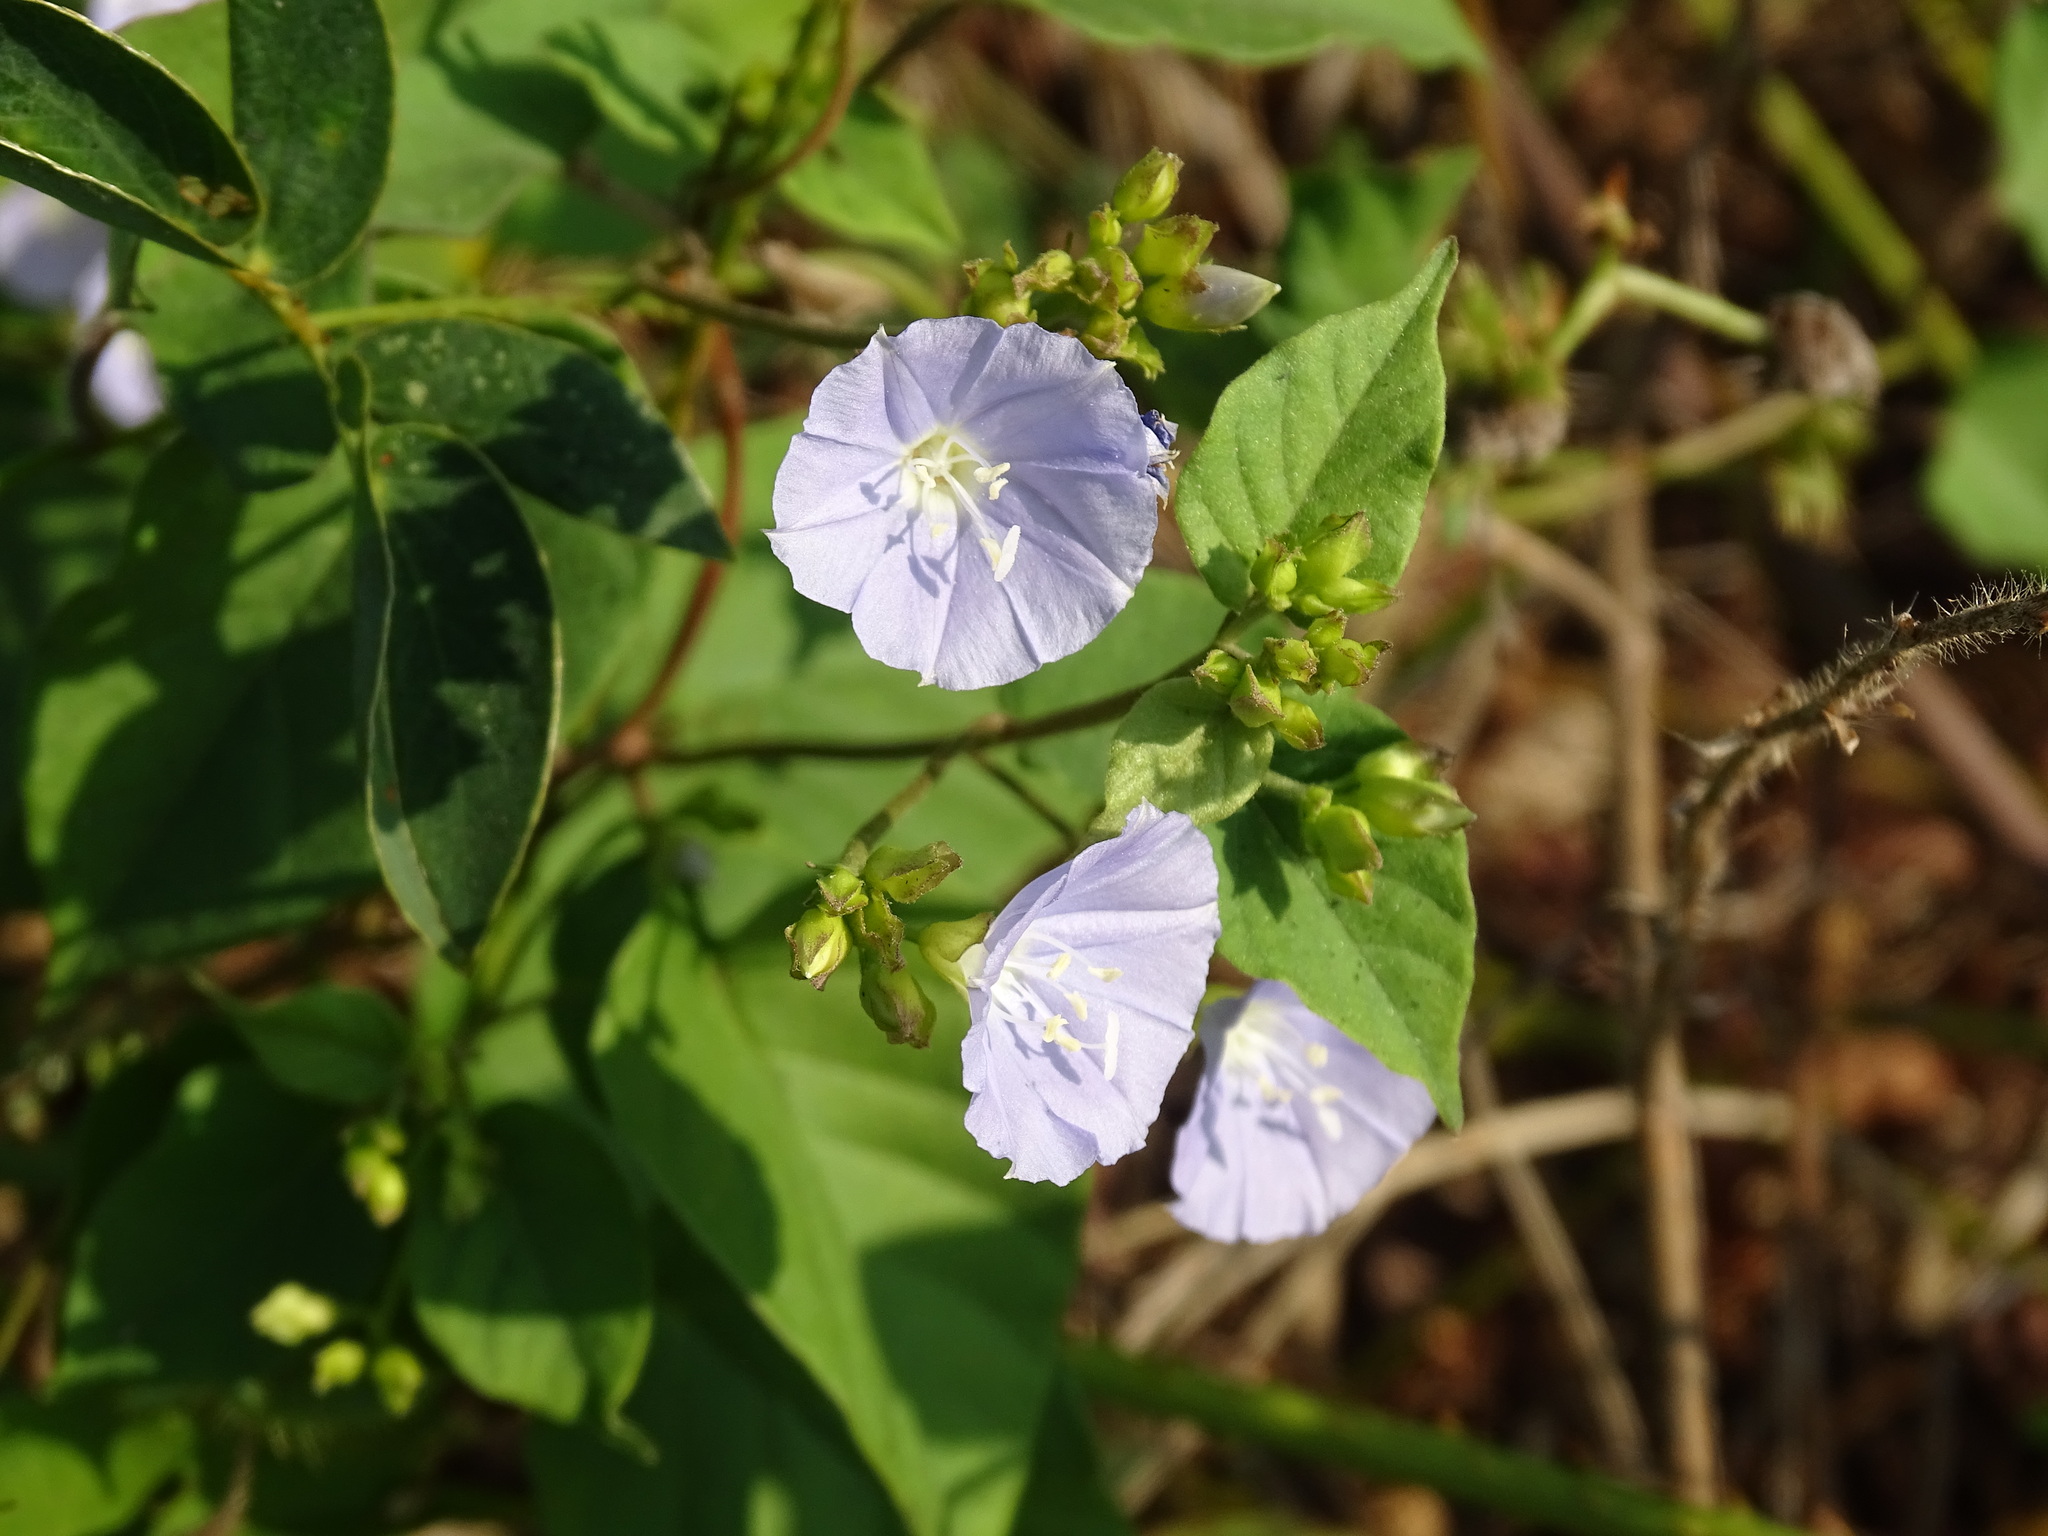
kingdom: Plantae
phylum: Tracheophyta
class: Magnoliopsida
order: Solanales
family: Convolvulaceae
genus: Jacquemontia
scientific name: Jacquemontia oaxacana
